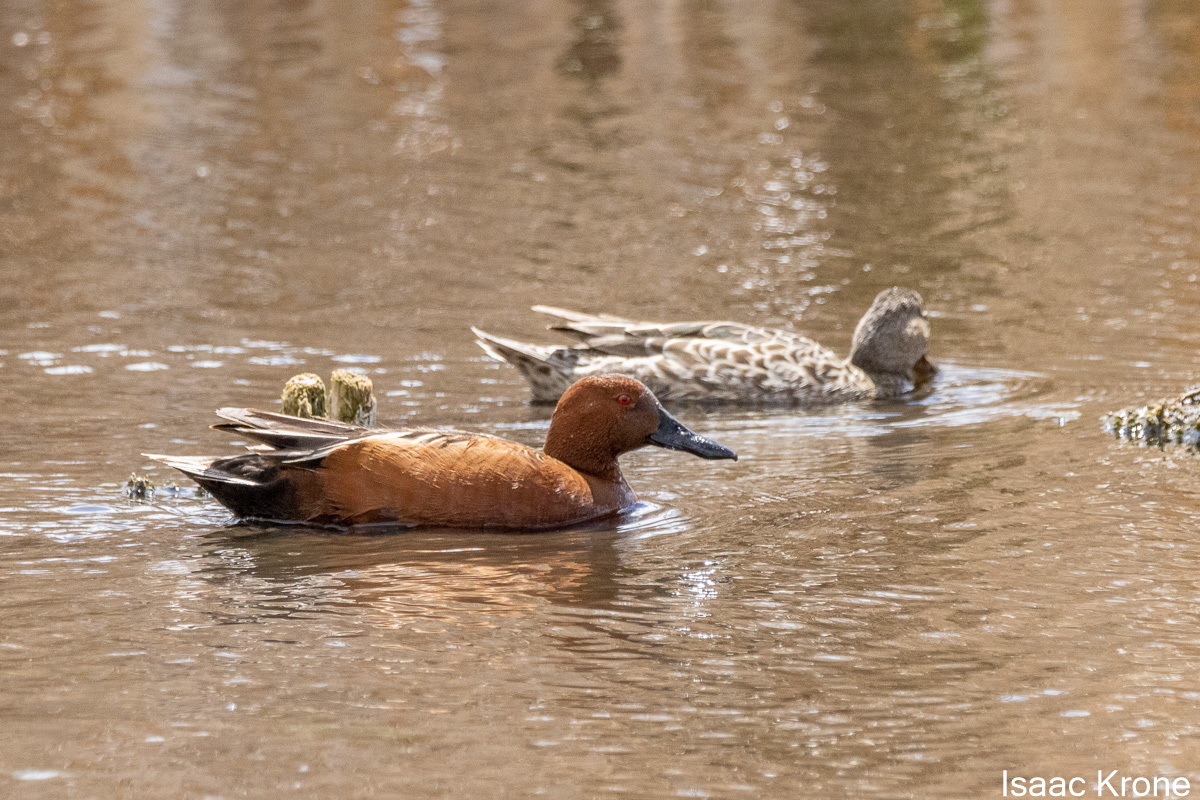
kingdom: Animalia
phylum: Chordata
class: Aves
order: Anseriformes
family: Anatidae
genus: Spatula
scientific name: Spatula cyanoptera
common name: Cinnamon teal
